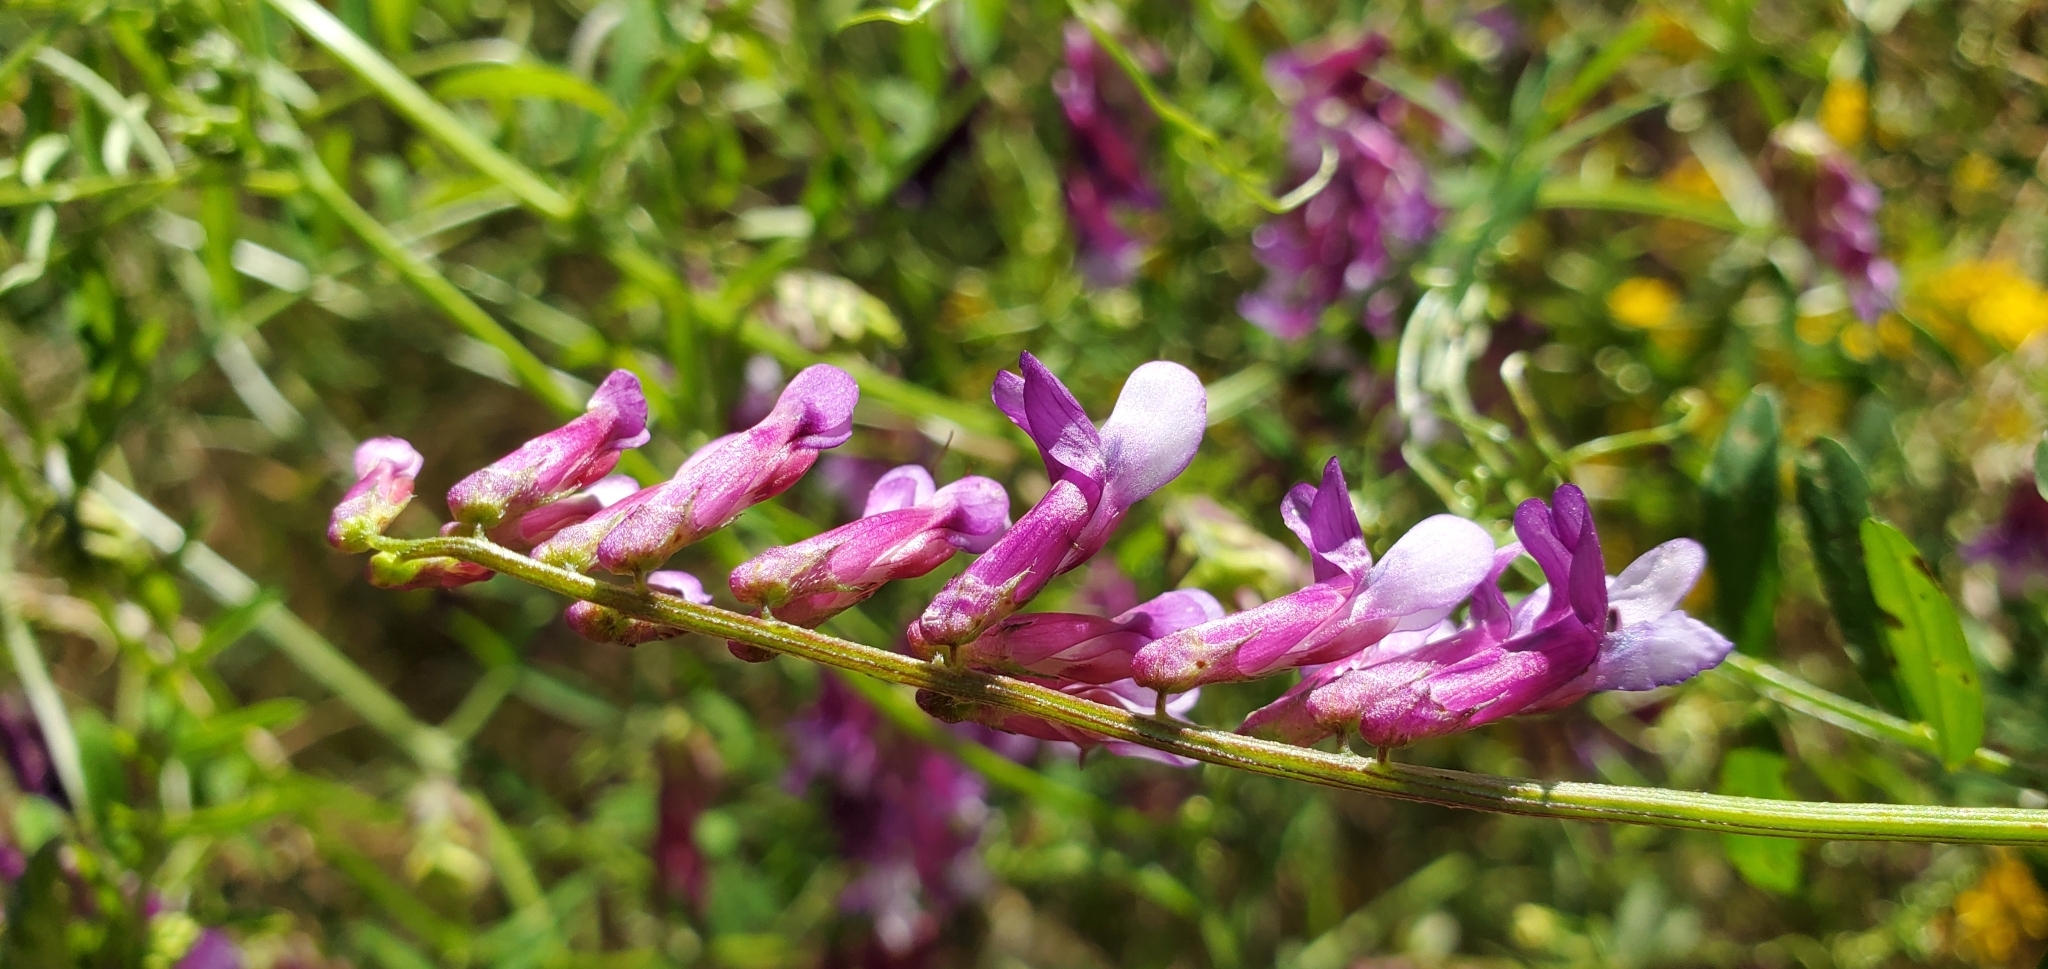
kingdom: Plantae
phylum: Tracheophyta
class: Magnoliopsida
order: Fabales
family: Fabaceae
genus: Vicia
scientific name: Vicia villosa
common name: Fodder vetch
